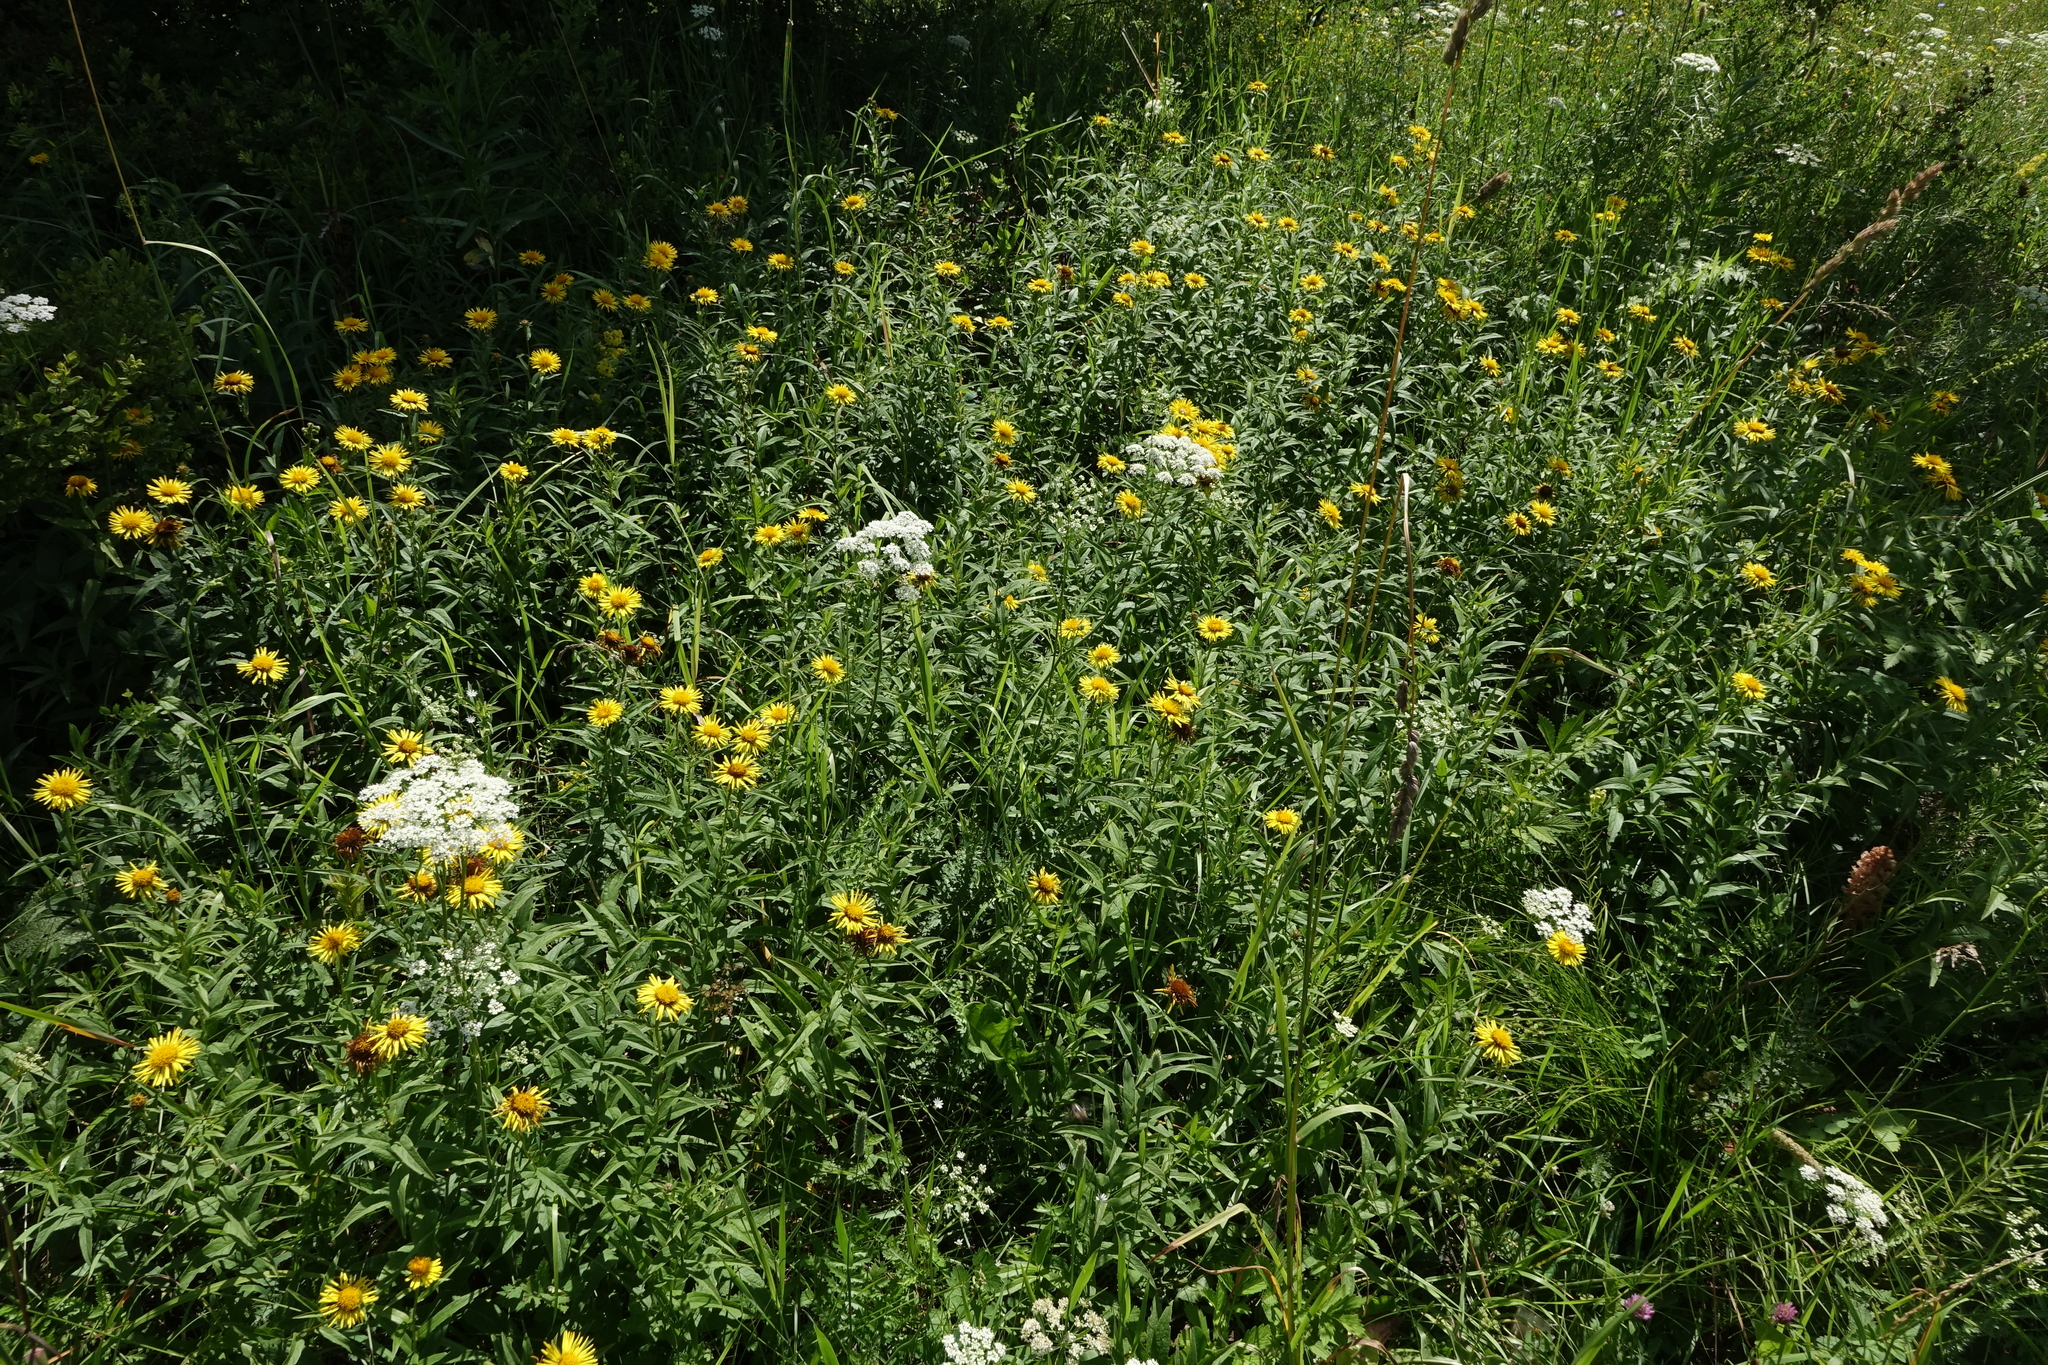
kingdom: Plantae
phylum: Tracheophyta
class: Magnoliopsida
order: Asterales
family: Asteraceae
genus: Pentanema
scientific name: Pentanema salicinum
